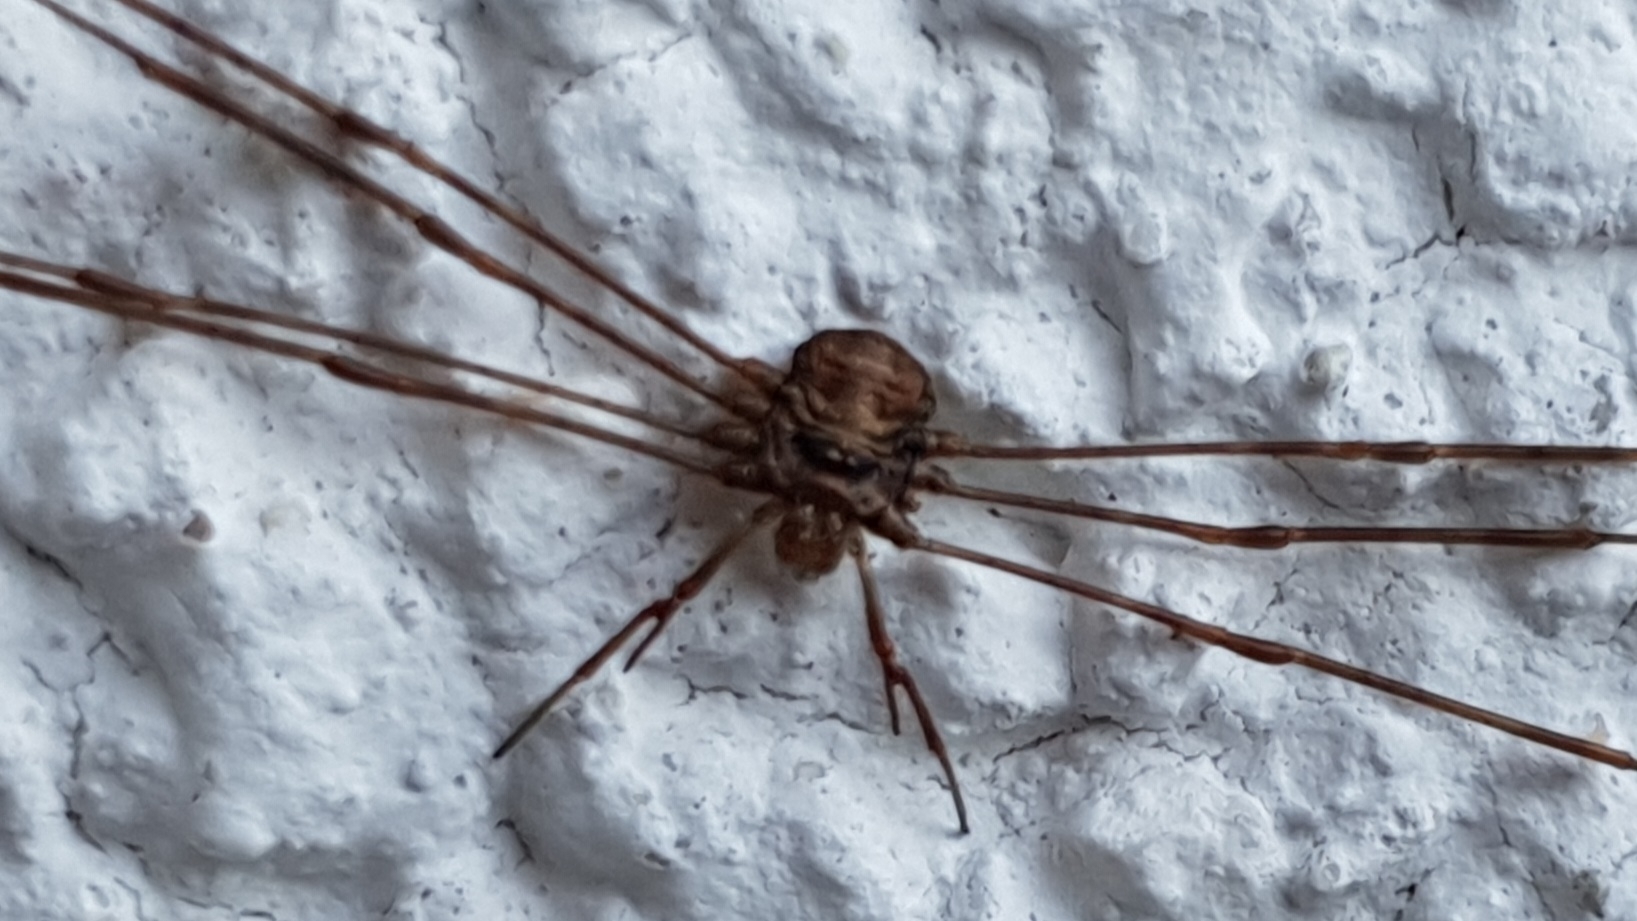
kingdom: Animalia
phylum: Arthropoda
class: Arachnida
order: Opiliones
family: Phalangiidae
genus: Dicranopalpus
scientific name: Dicranopalpus ramosus
